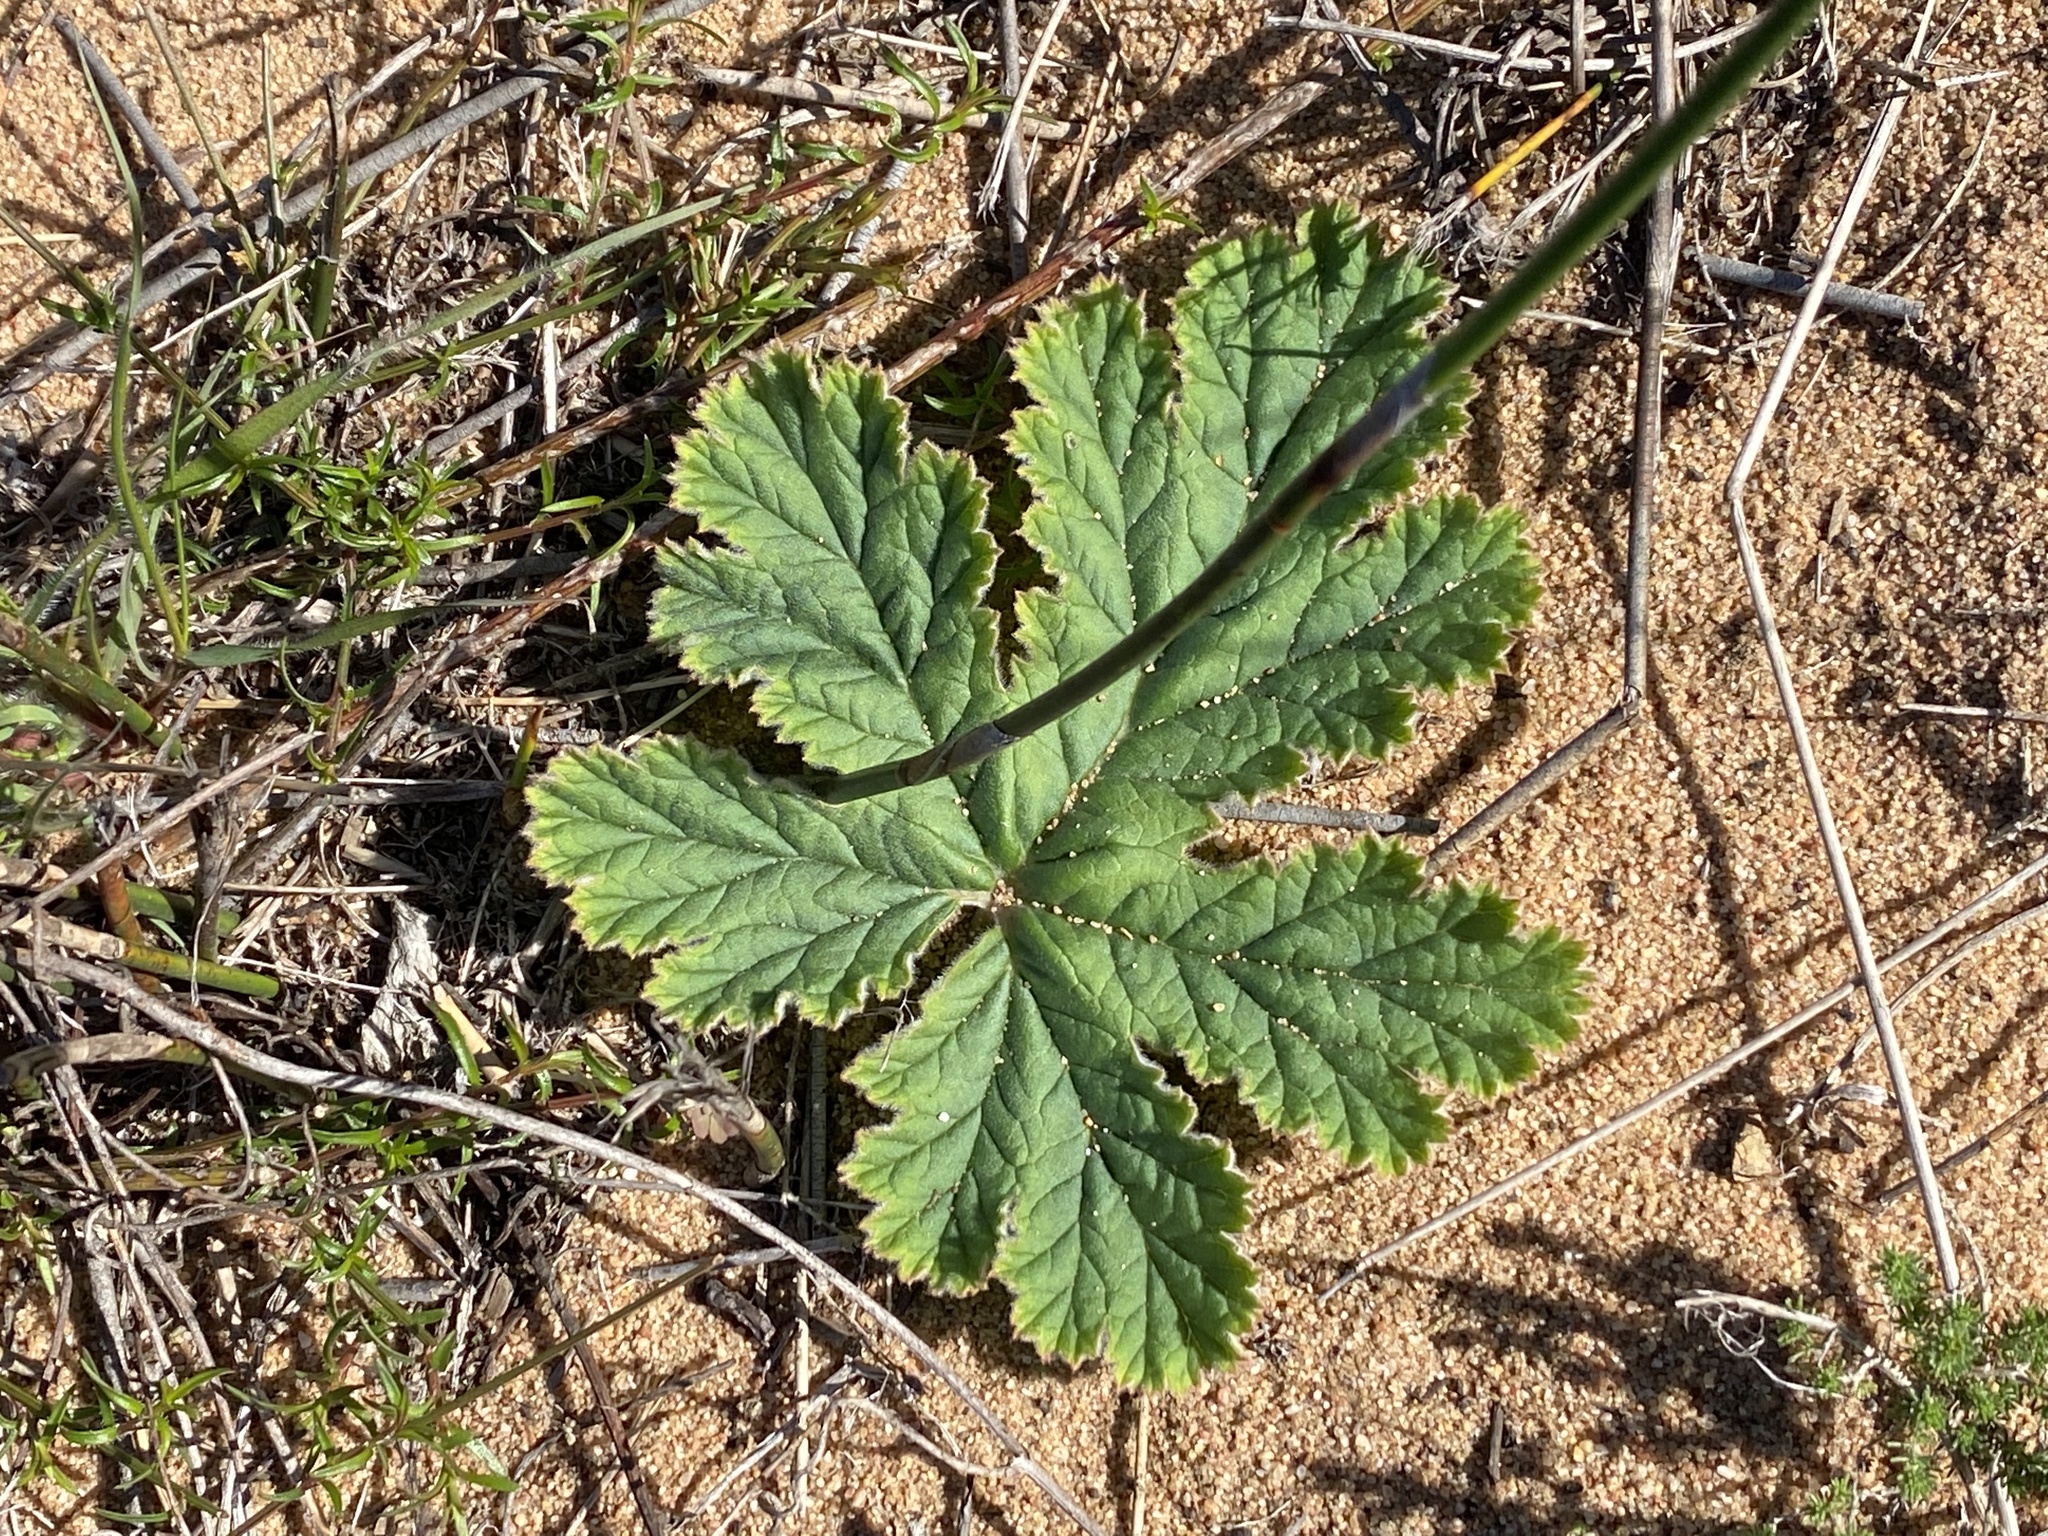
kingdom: Plantae
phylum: Tracheophyta
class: Magnoliopsida
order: Geraniales
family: Geraniaceae
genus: Pelargonium
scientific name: Pelargonium lobatum
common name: Vine-leaf pelargonium
